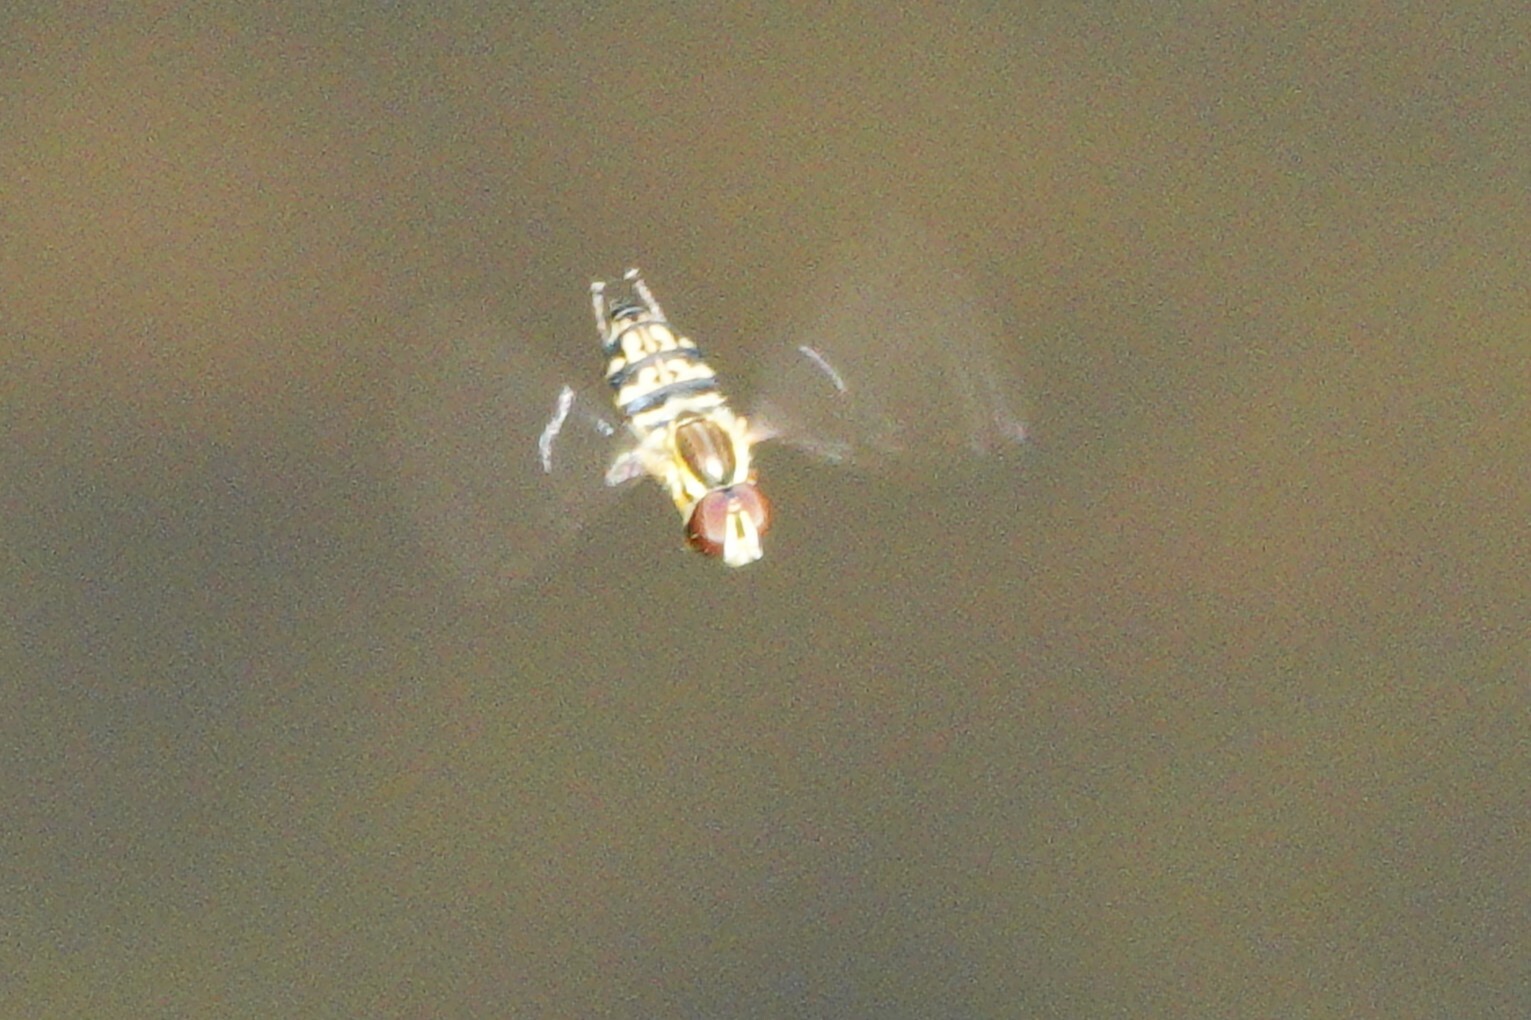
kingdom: Animalia
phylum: Arthropoda
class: Insecta
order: Diptera
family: Syrphidae
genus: Toxomerus
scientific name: Toxomerus geminatus
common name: Eastern calligrapher
